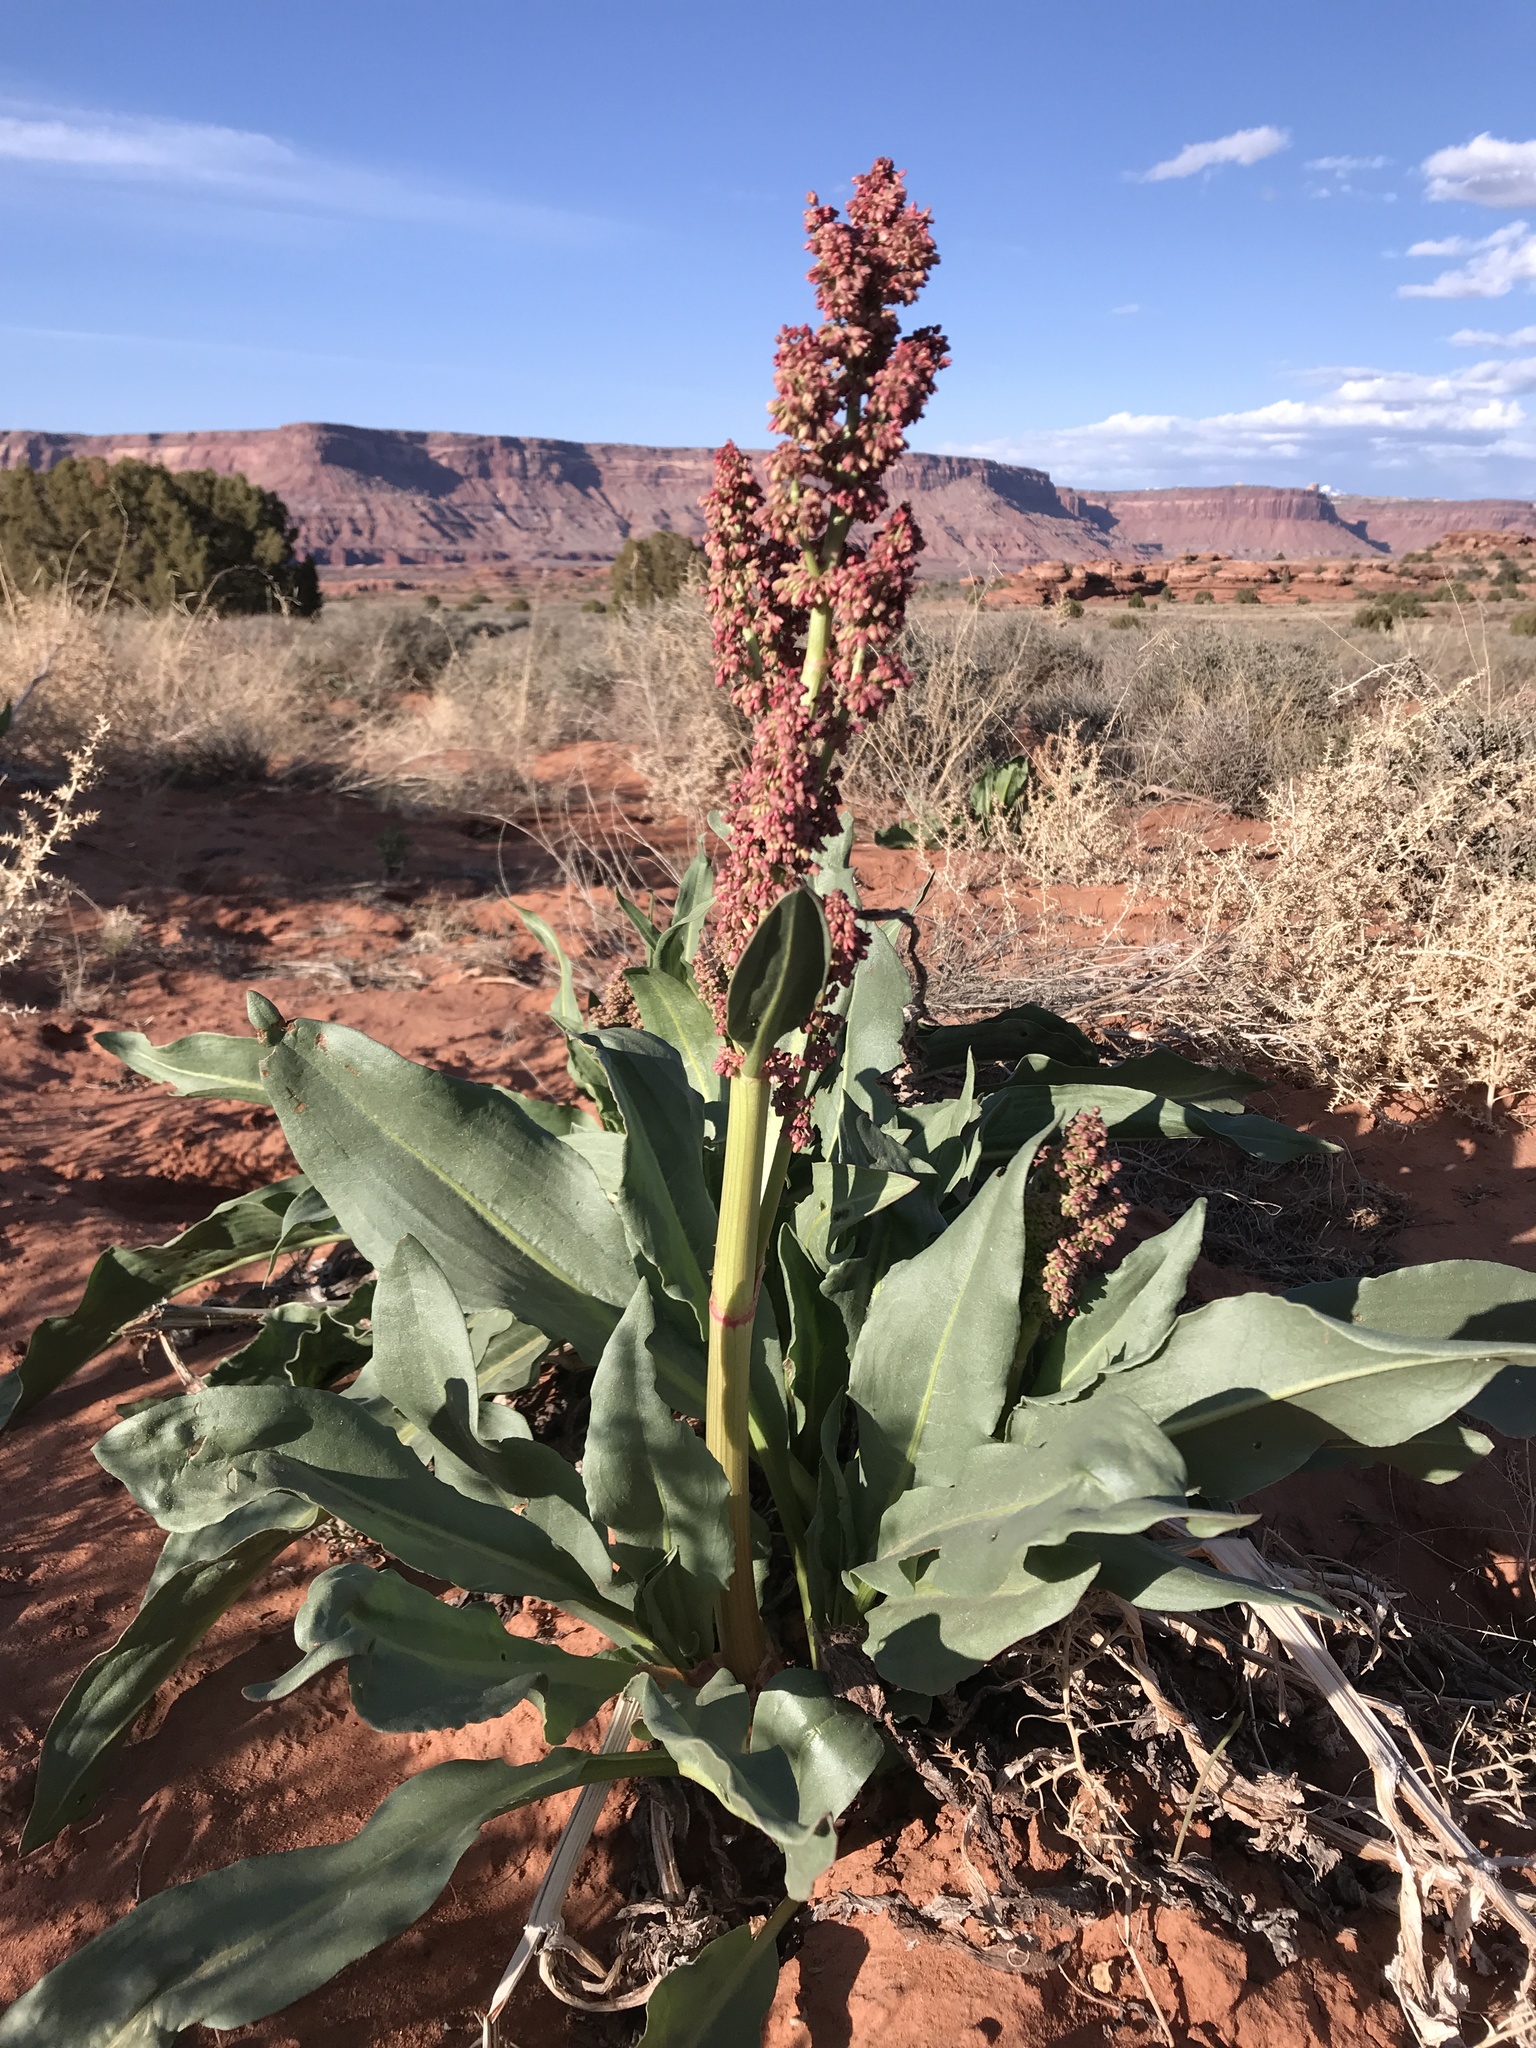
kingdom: Plantae
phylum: Tracheophyta
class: Magnoliopsida
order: Caryophyllales
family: Polygonaceae
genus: Rumex
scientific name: Rumex hymenosepalus
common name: Ganagra
